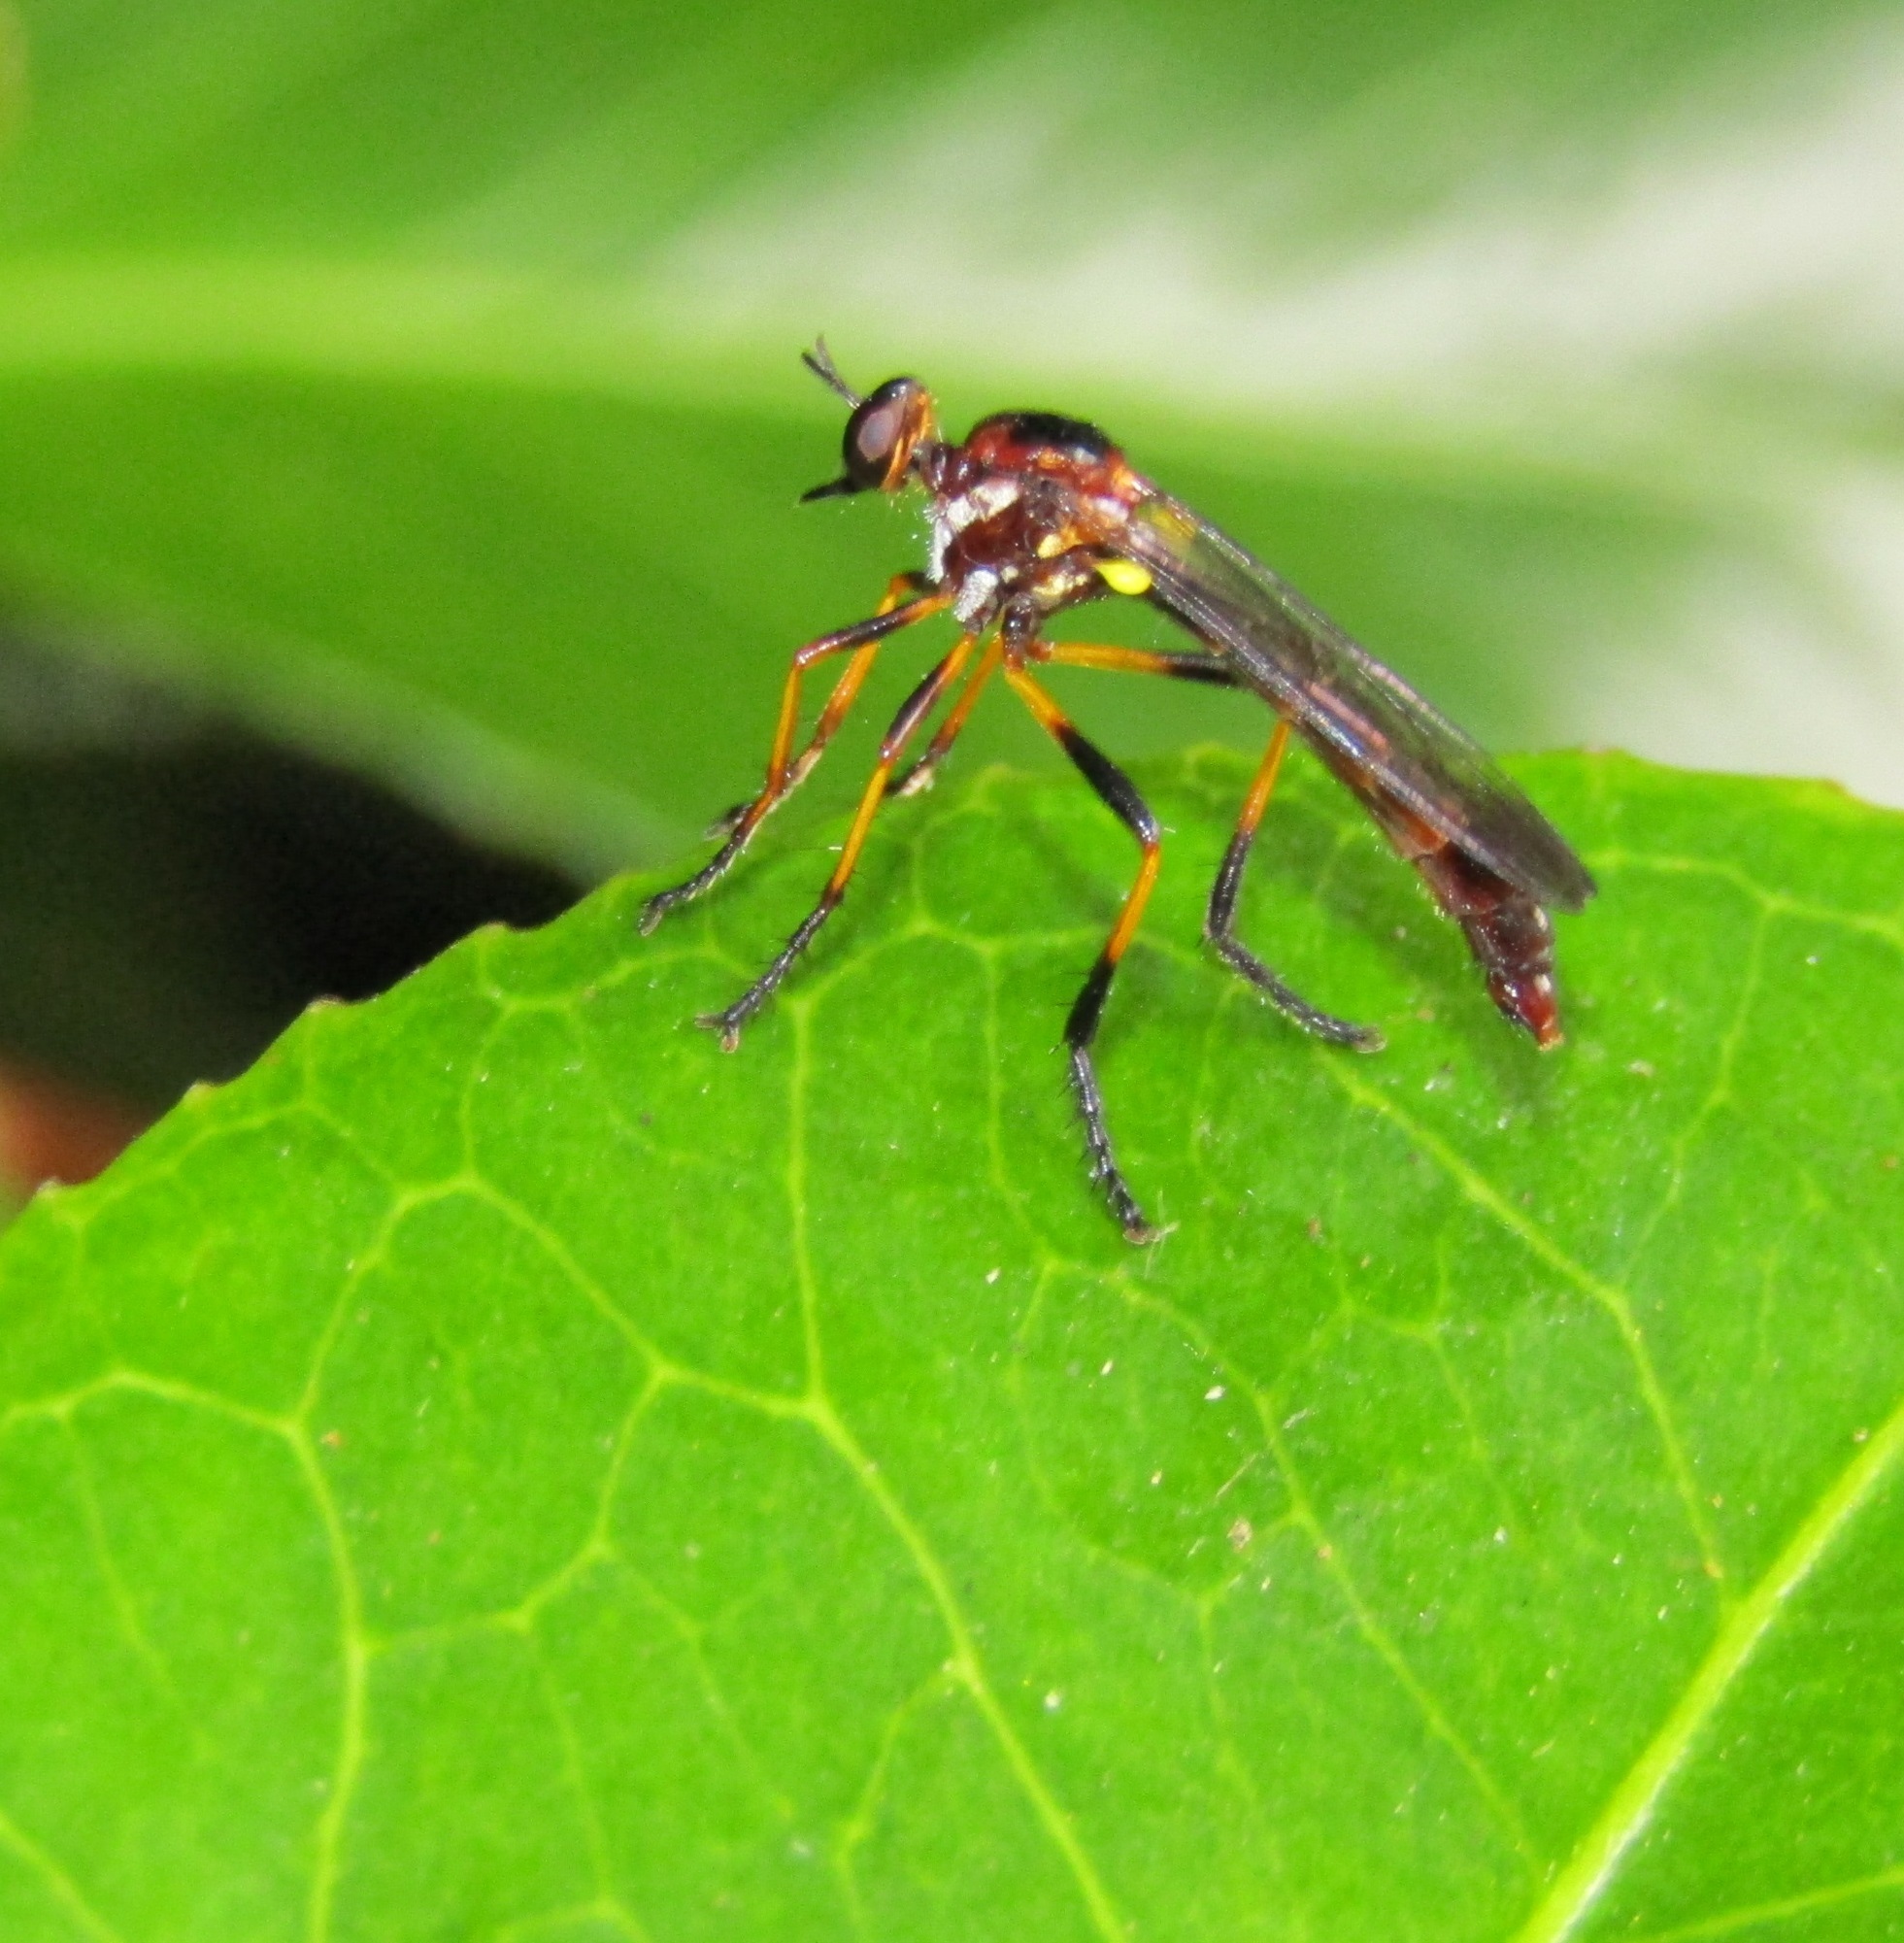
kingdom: Animalia
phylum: Arthropoda
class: Insecta
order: Diptera
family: Asilidae
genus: Saropogon
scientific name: Saropogon fascipes
